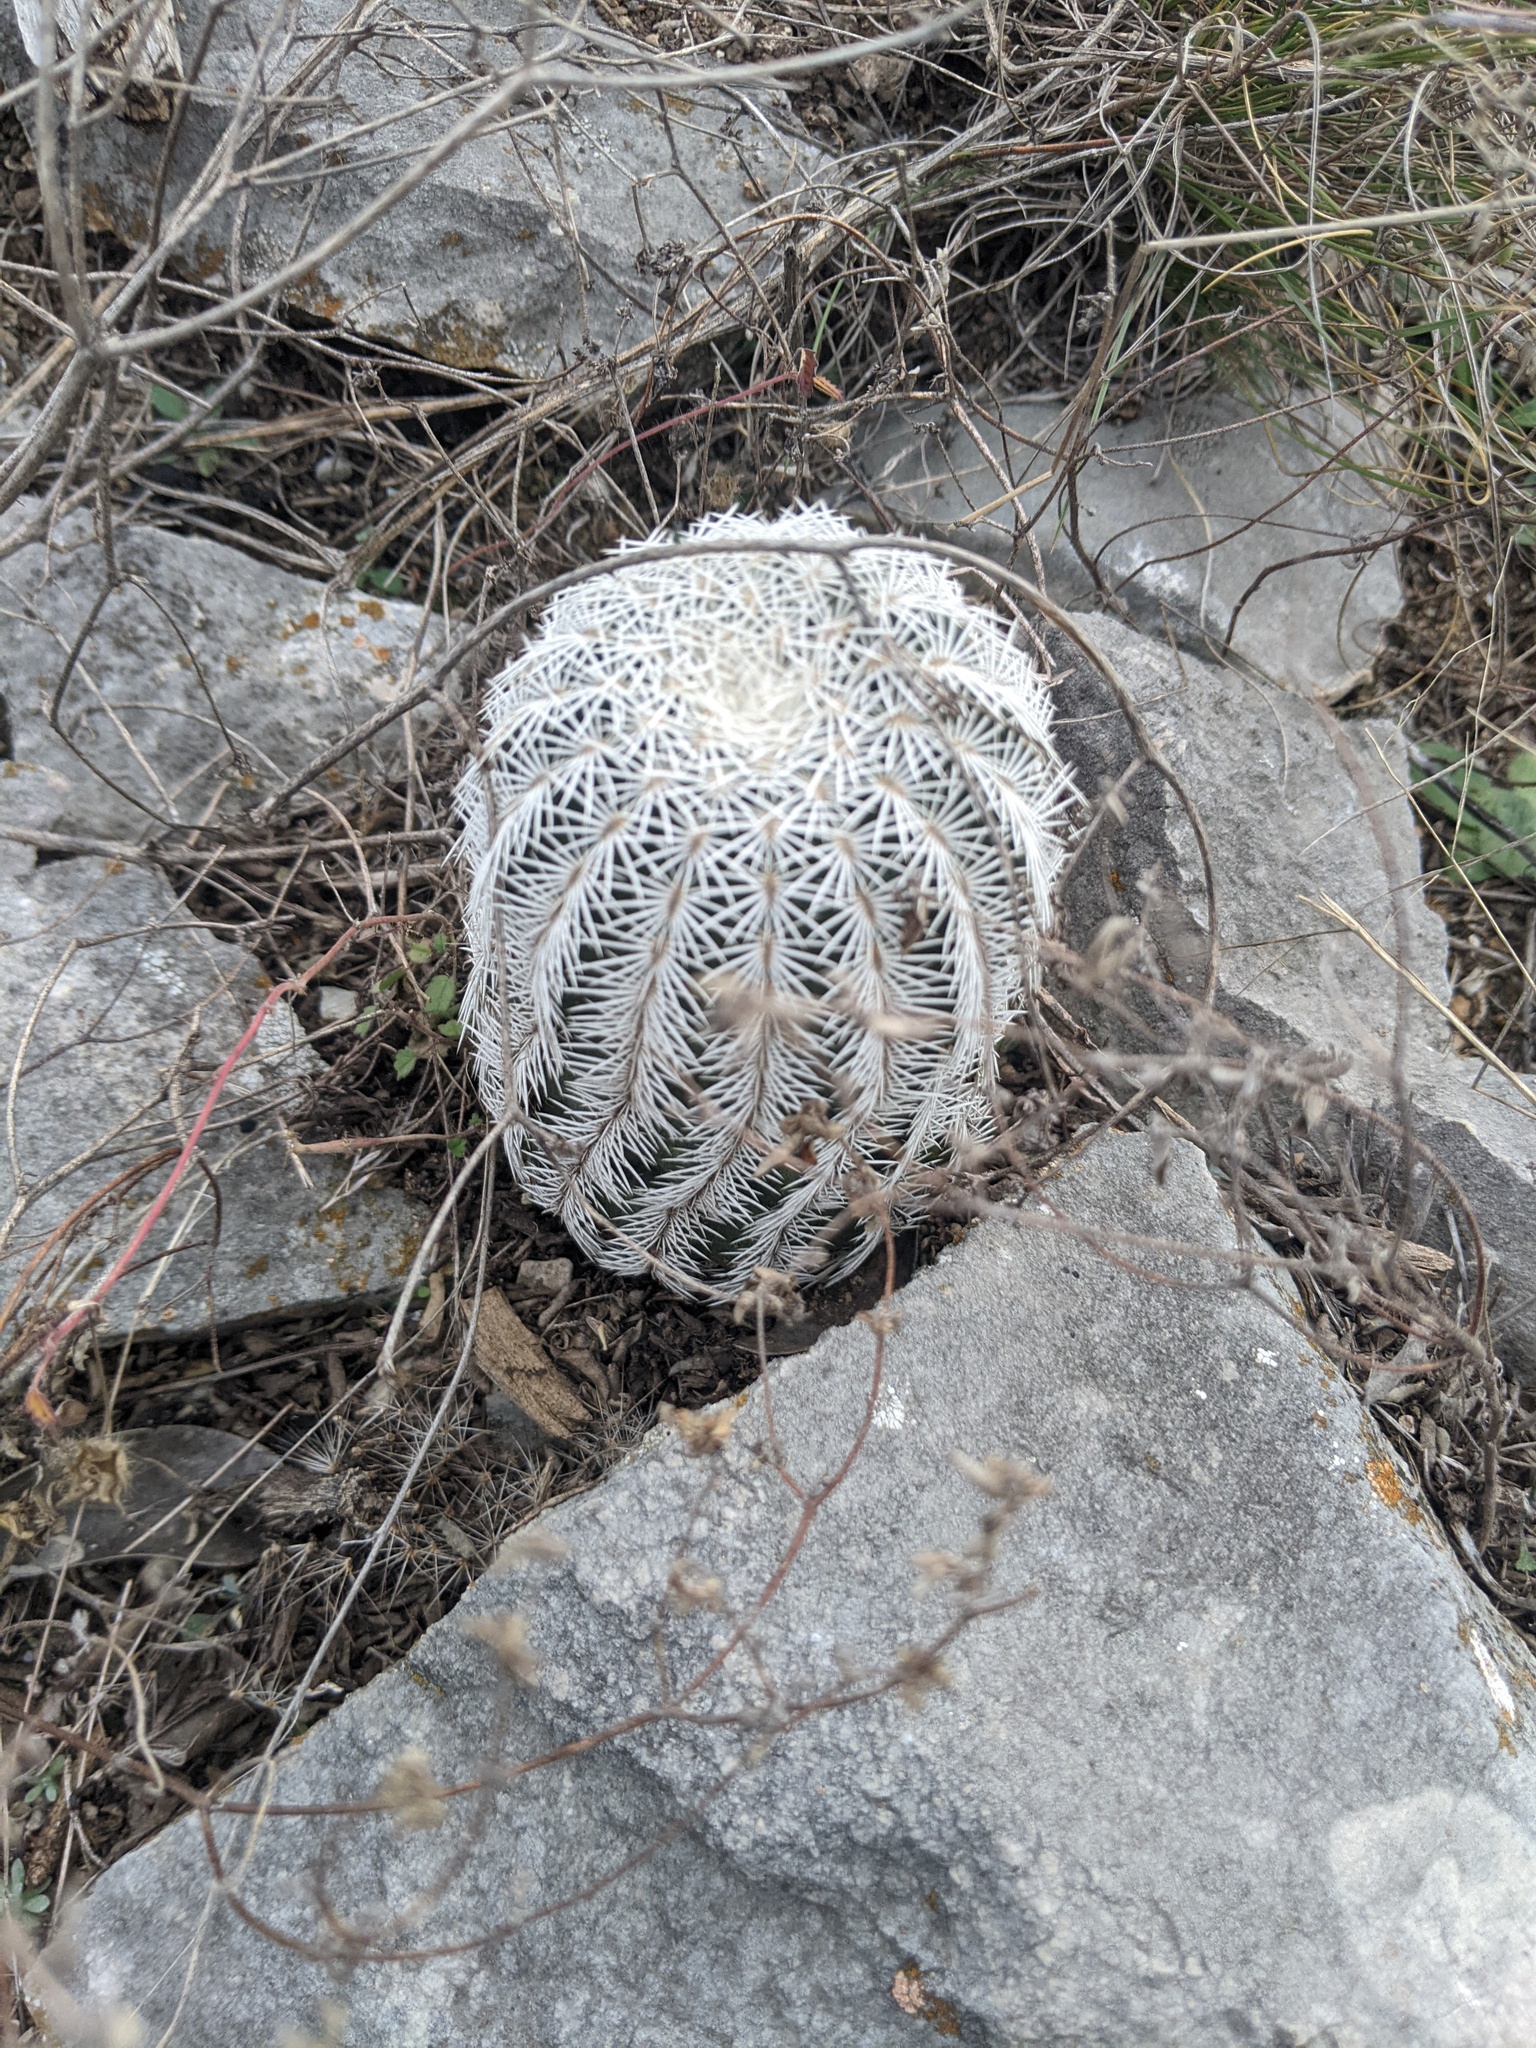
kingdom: Plantae
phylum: Tracheophyta
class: Magnoliopsida
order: Caryophyllales
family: Cactaceae
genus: Echinocereus
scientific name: Echinocereus reichenbachii
